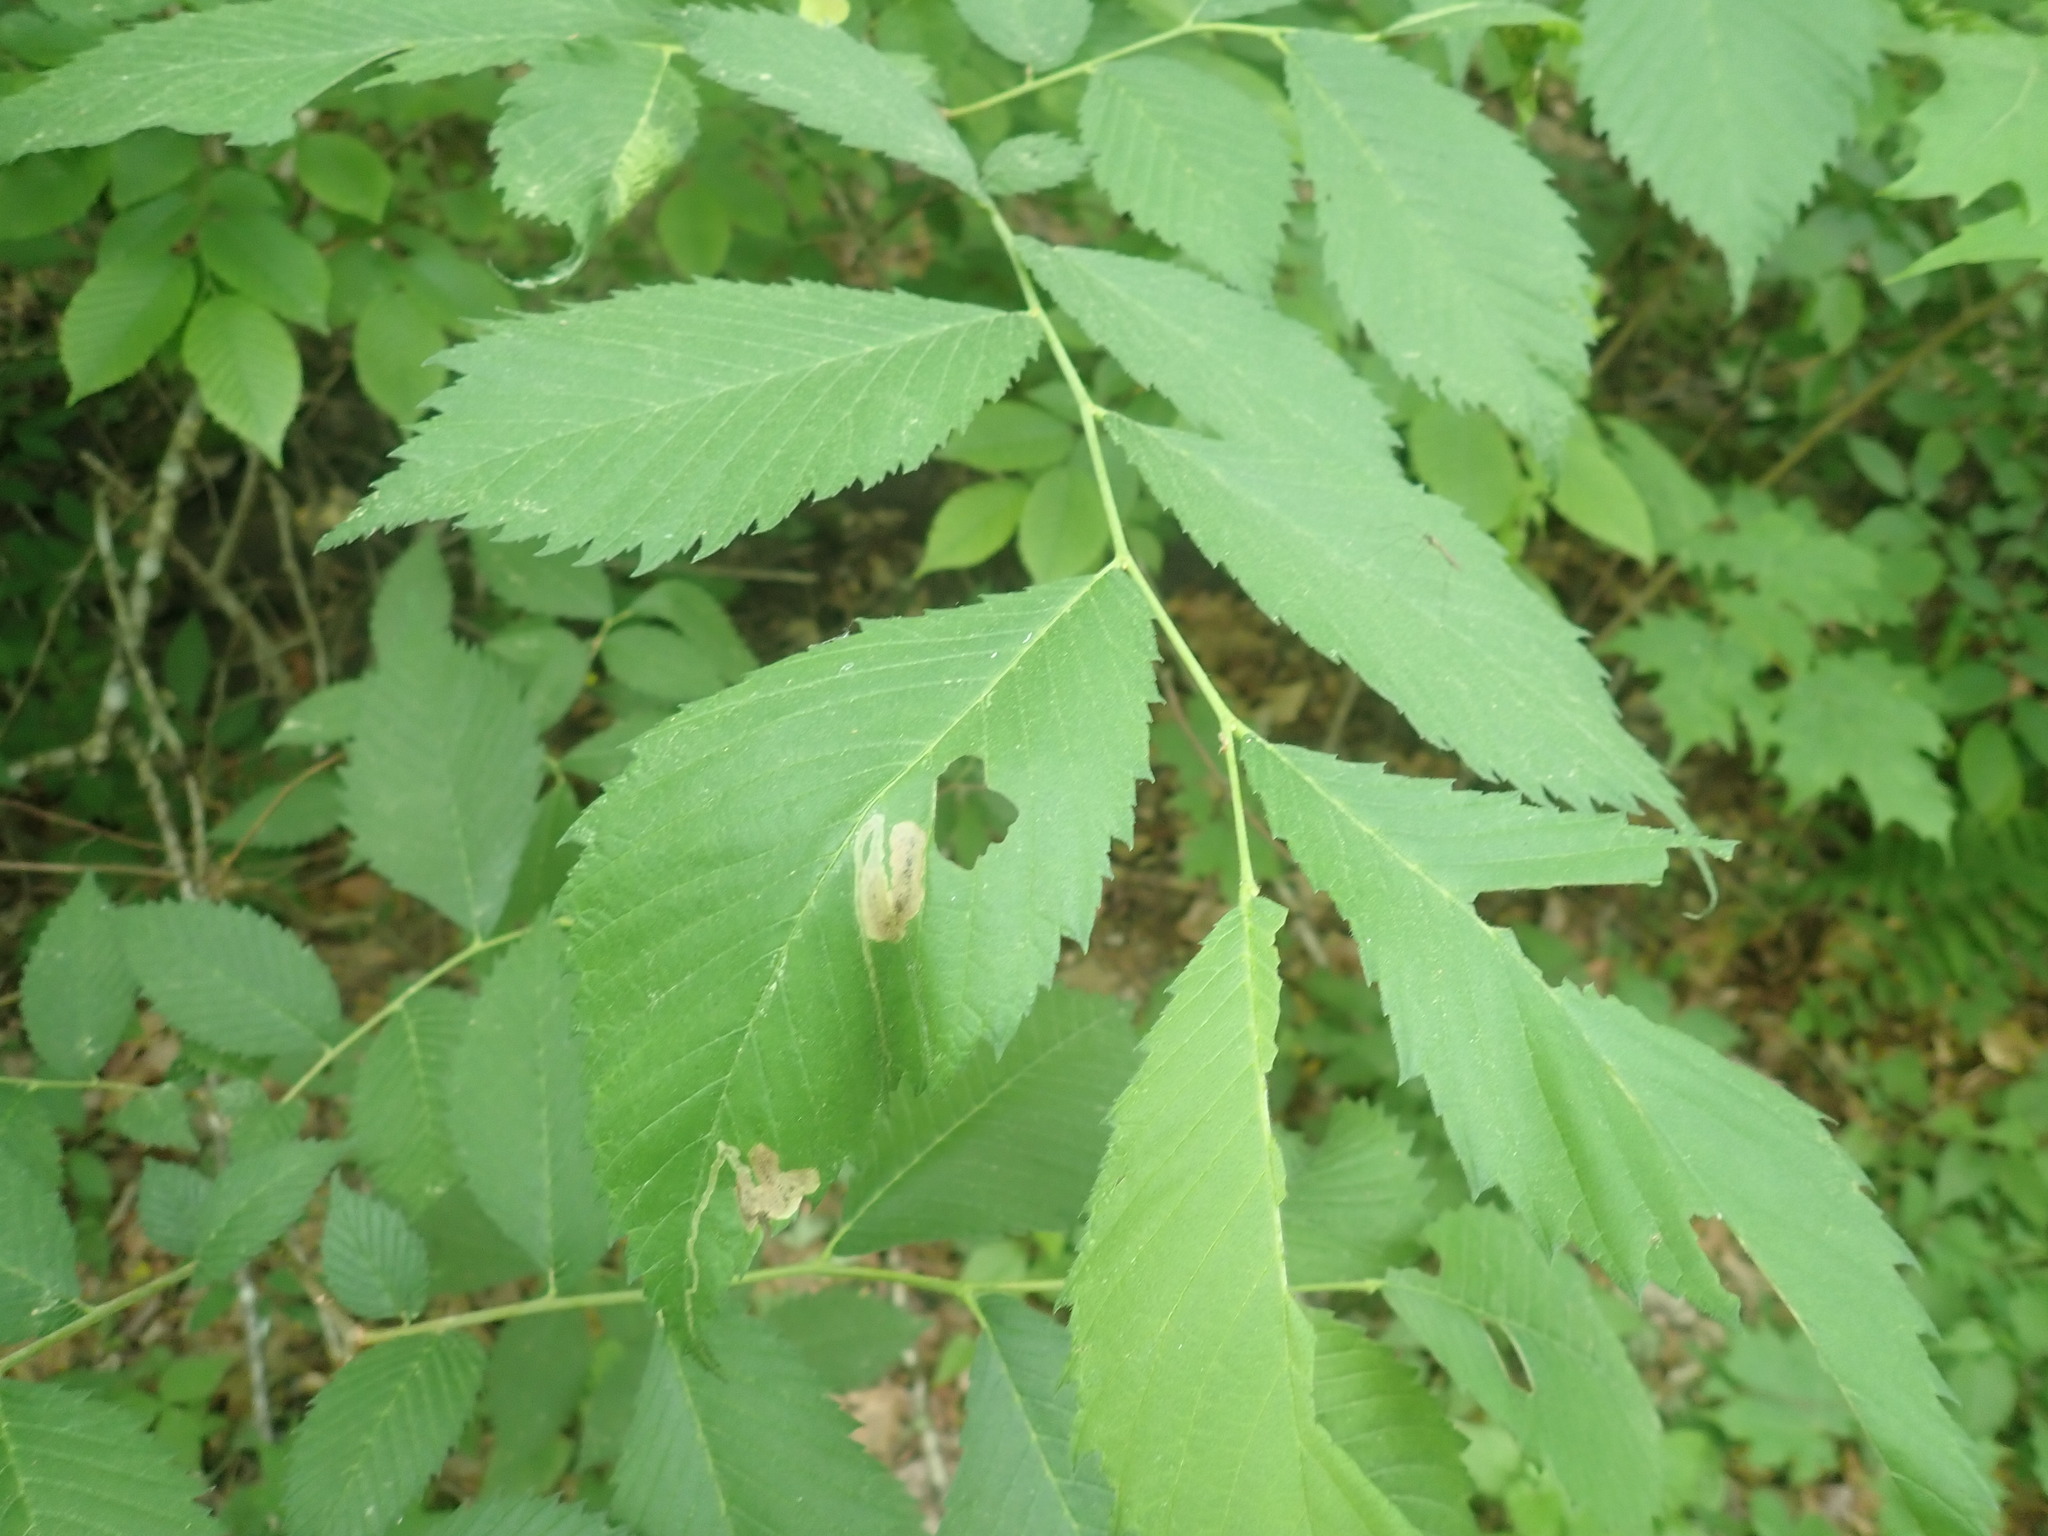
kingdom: Plantae
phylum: Tracheophyta
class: Magnoliopsida
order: Rosales
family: Ulmaceae
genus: Ulmus
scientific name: Ulmus
